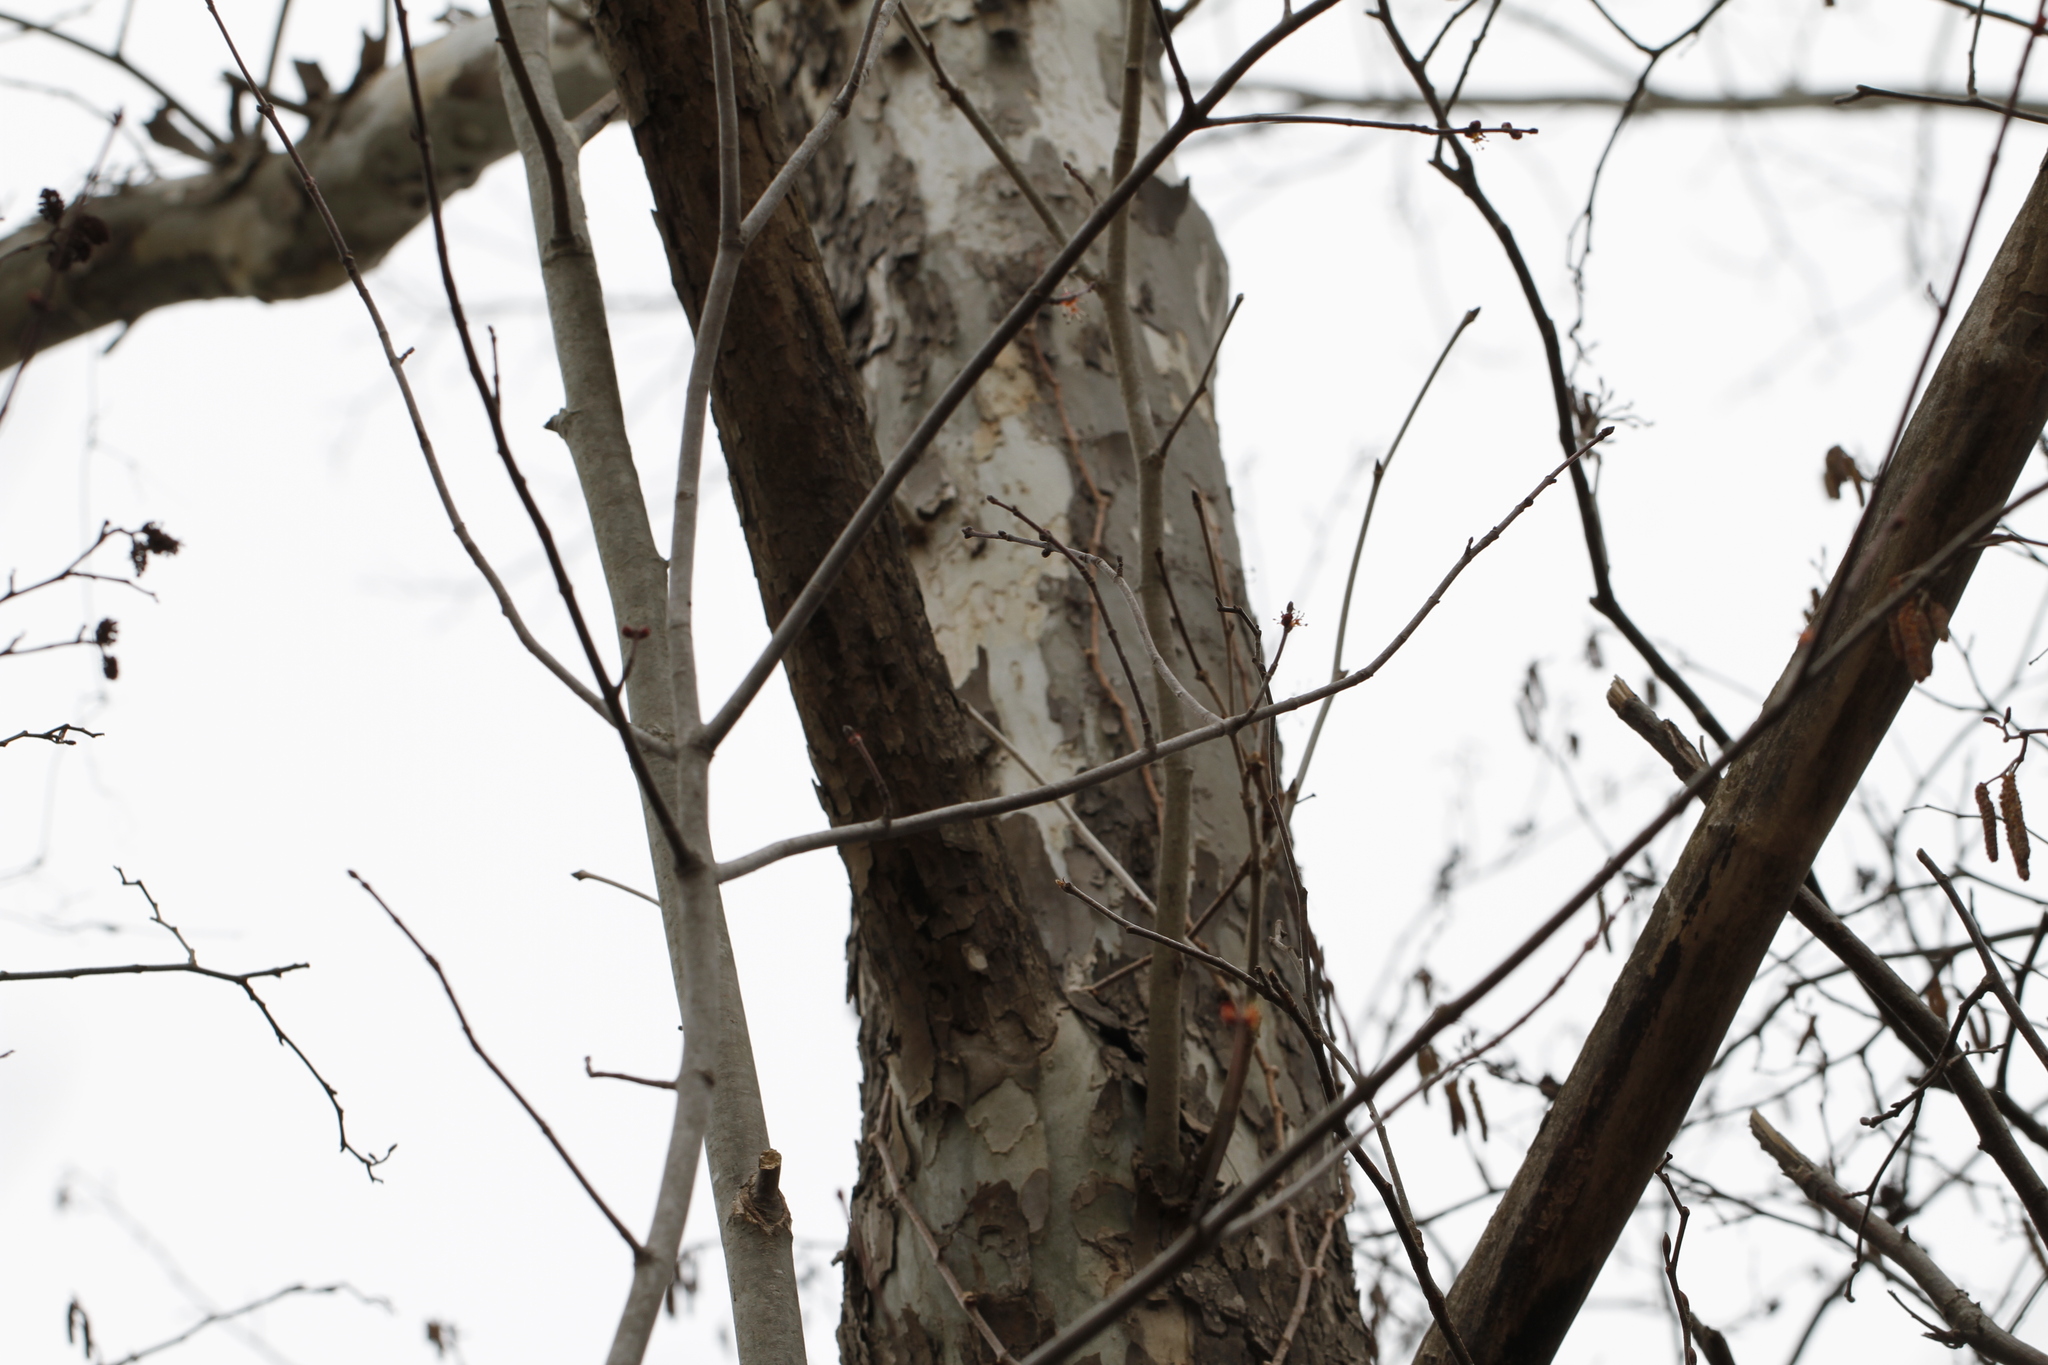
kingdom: Plantae
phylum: Tracheophyta
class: Magnoliopsida
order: Proteales
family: Platanaceae
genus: Platanus
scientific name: Platanus occidentalis
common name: American sycamore
